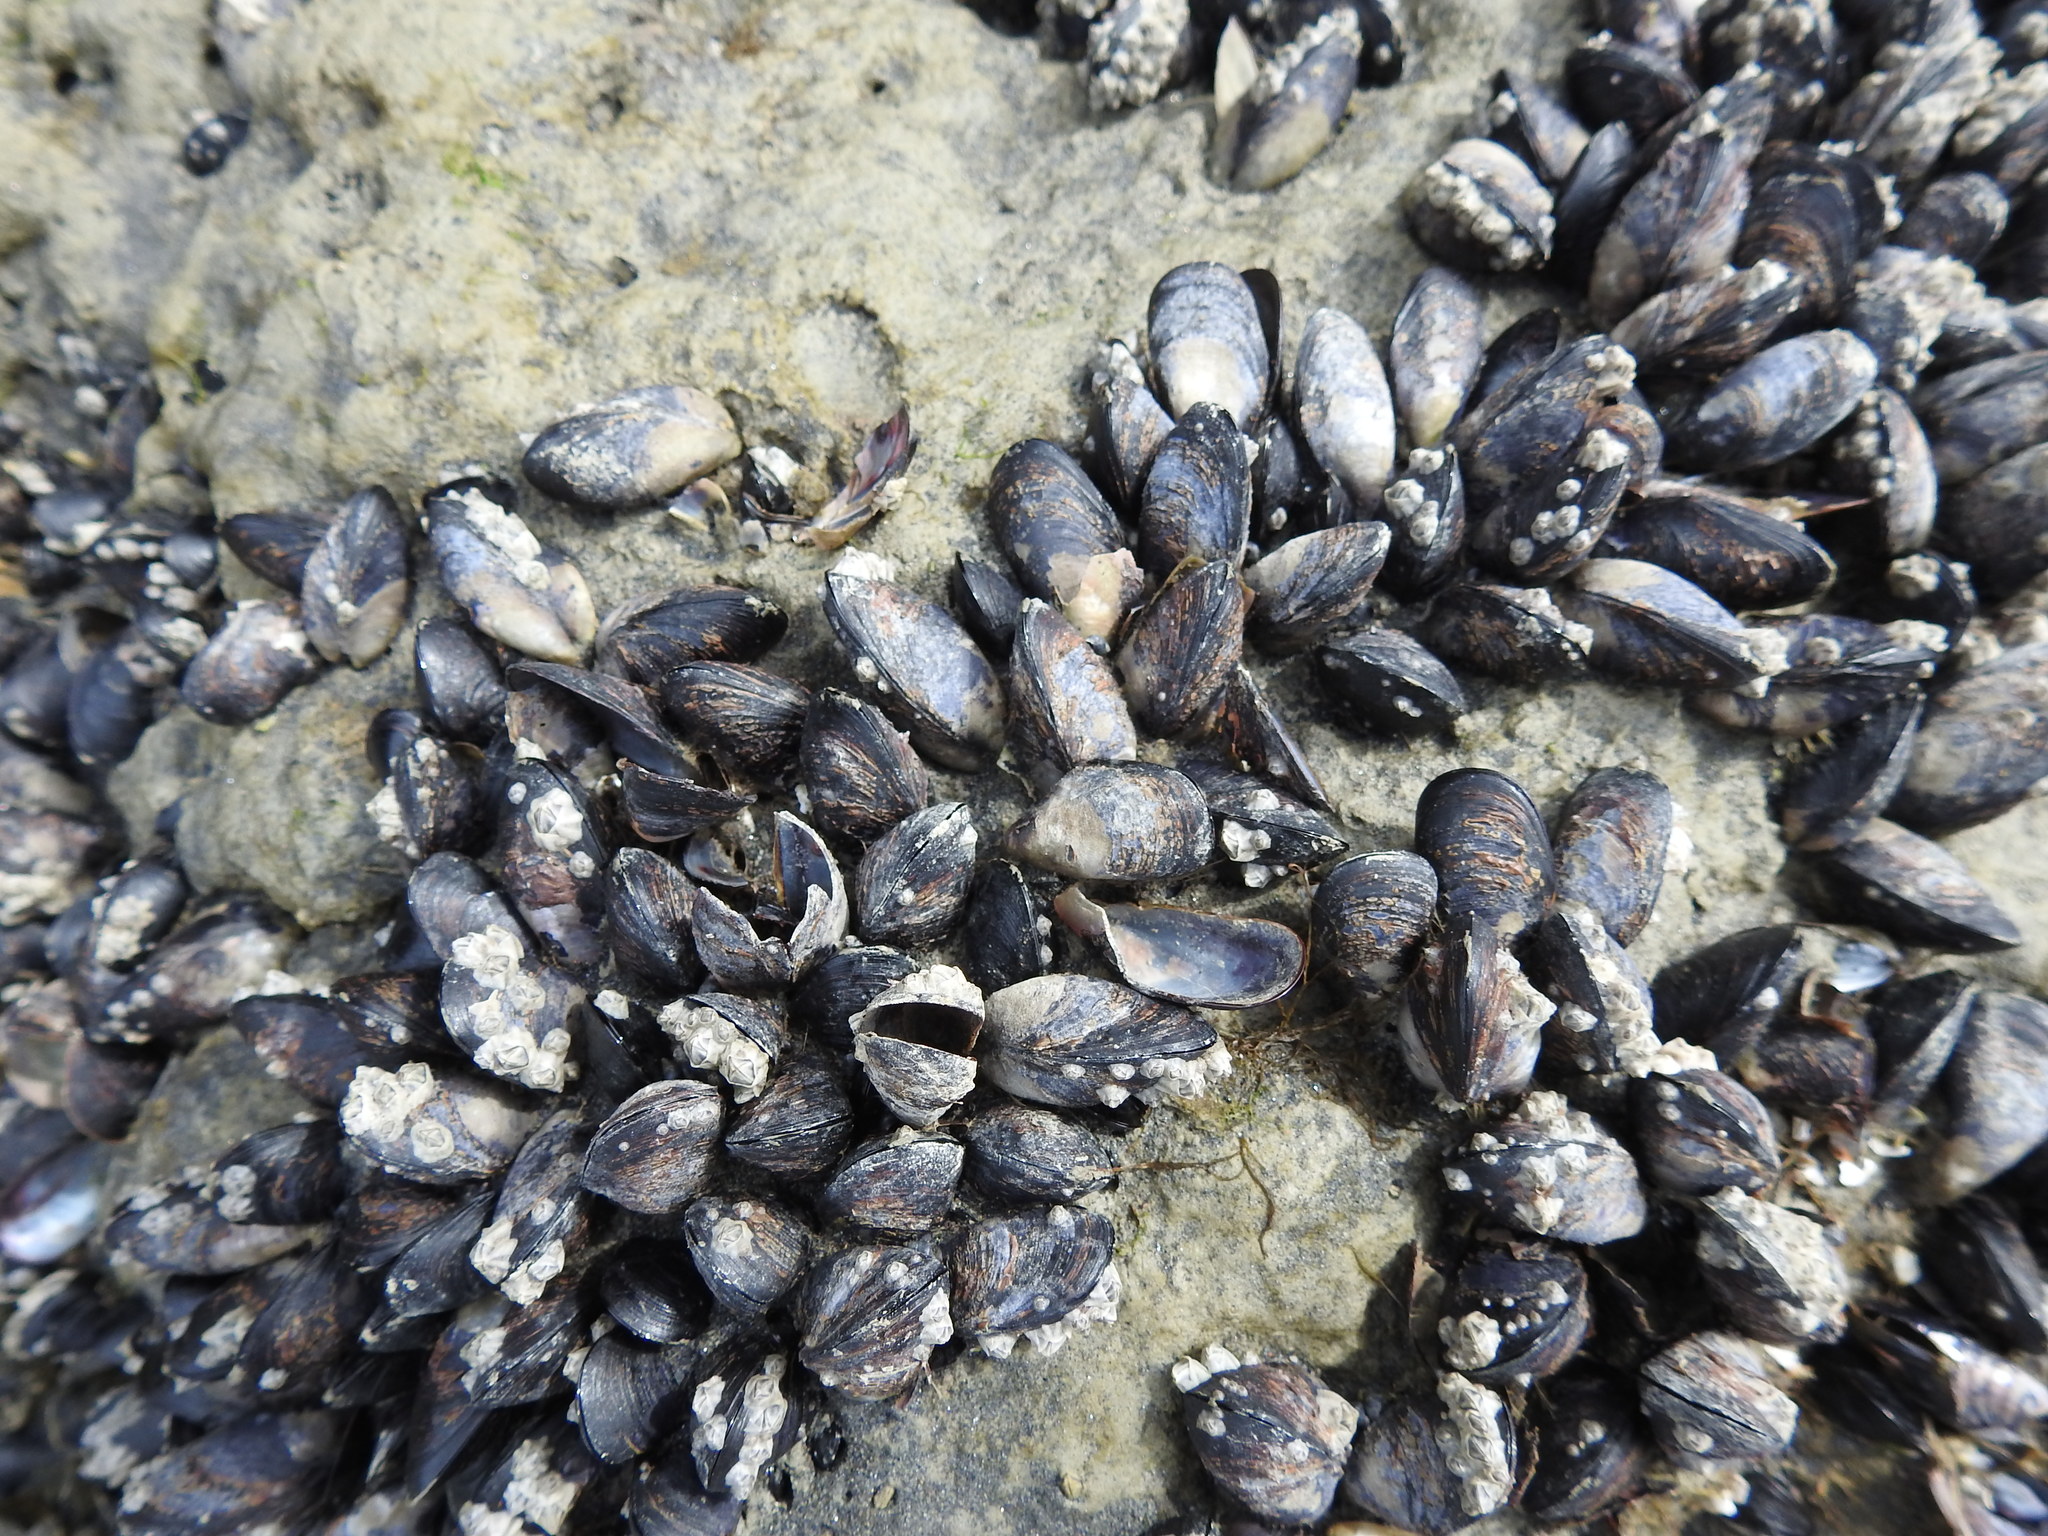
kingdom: Animalia
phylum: Mollusca
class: Bivalvia
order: Mytilida
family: Mytilidae
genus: Xenostrobus
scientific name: Xenostrobus neozelanicus
